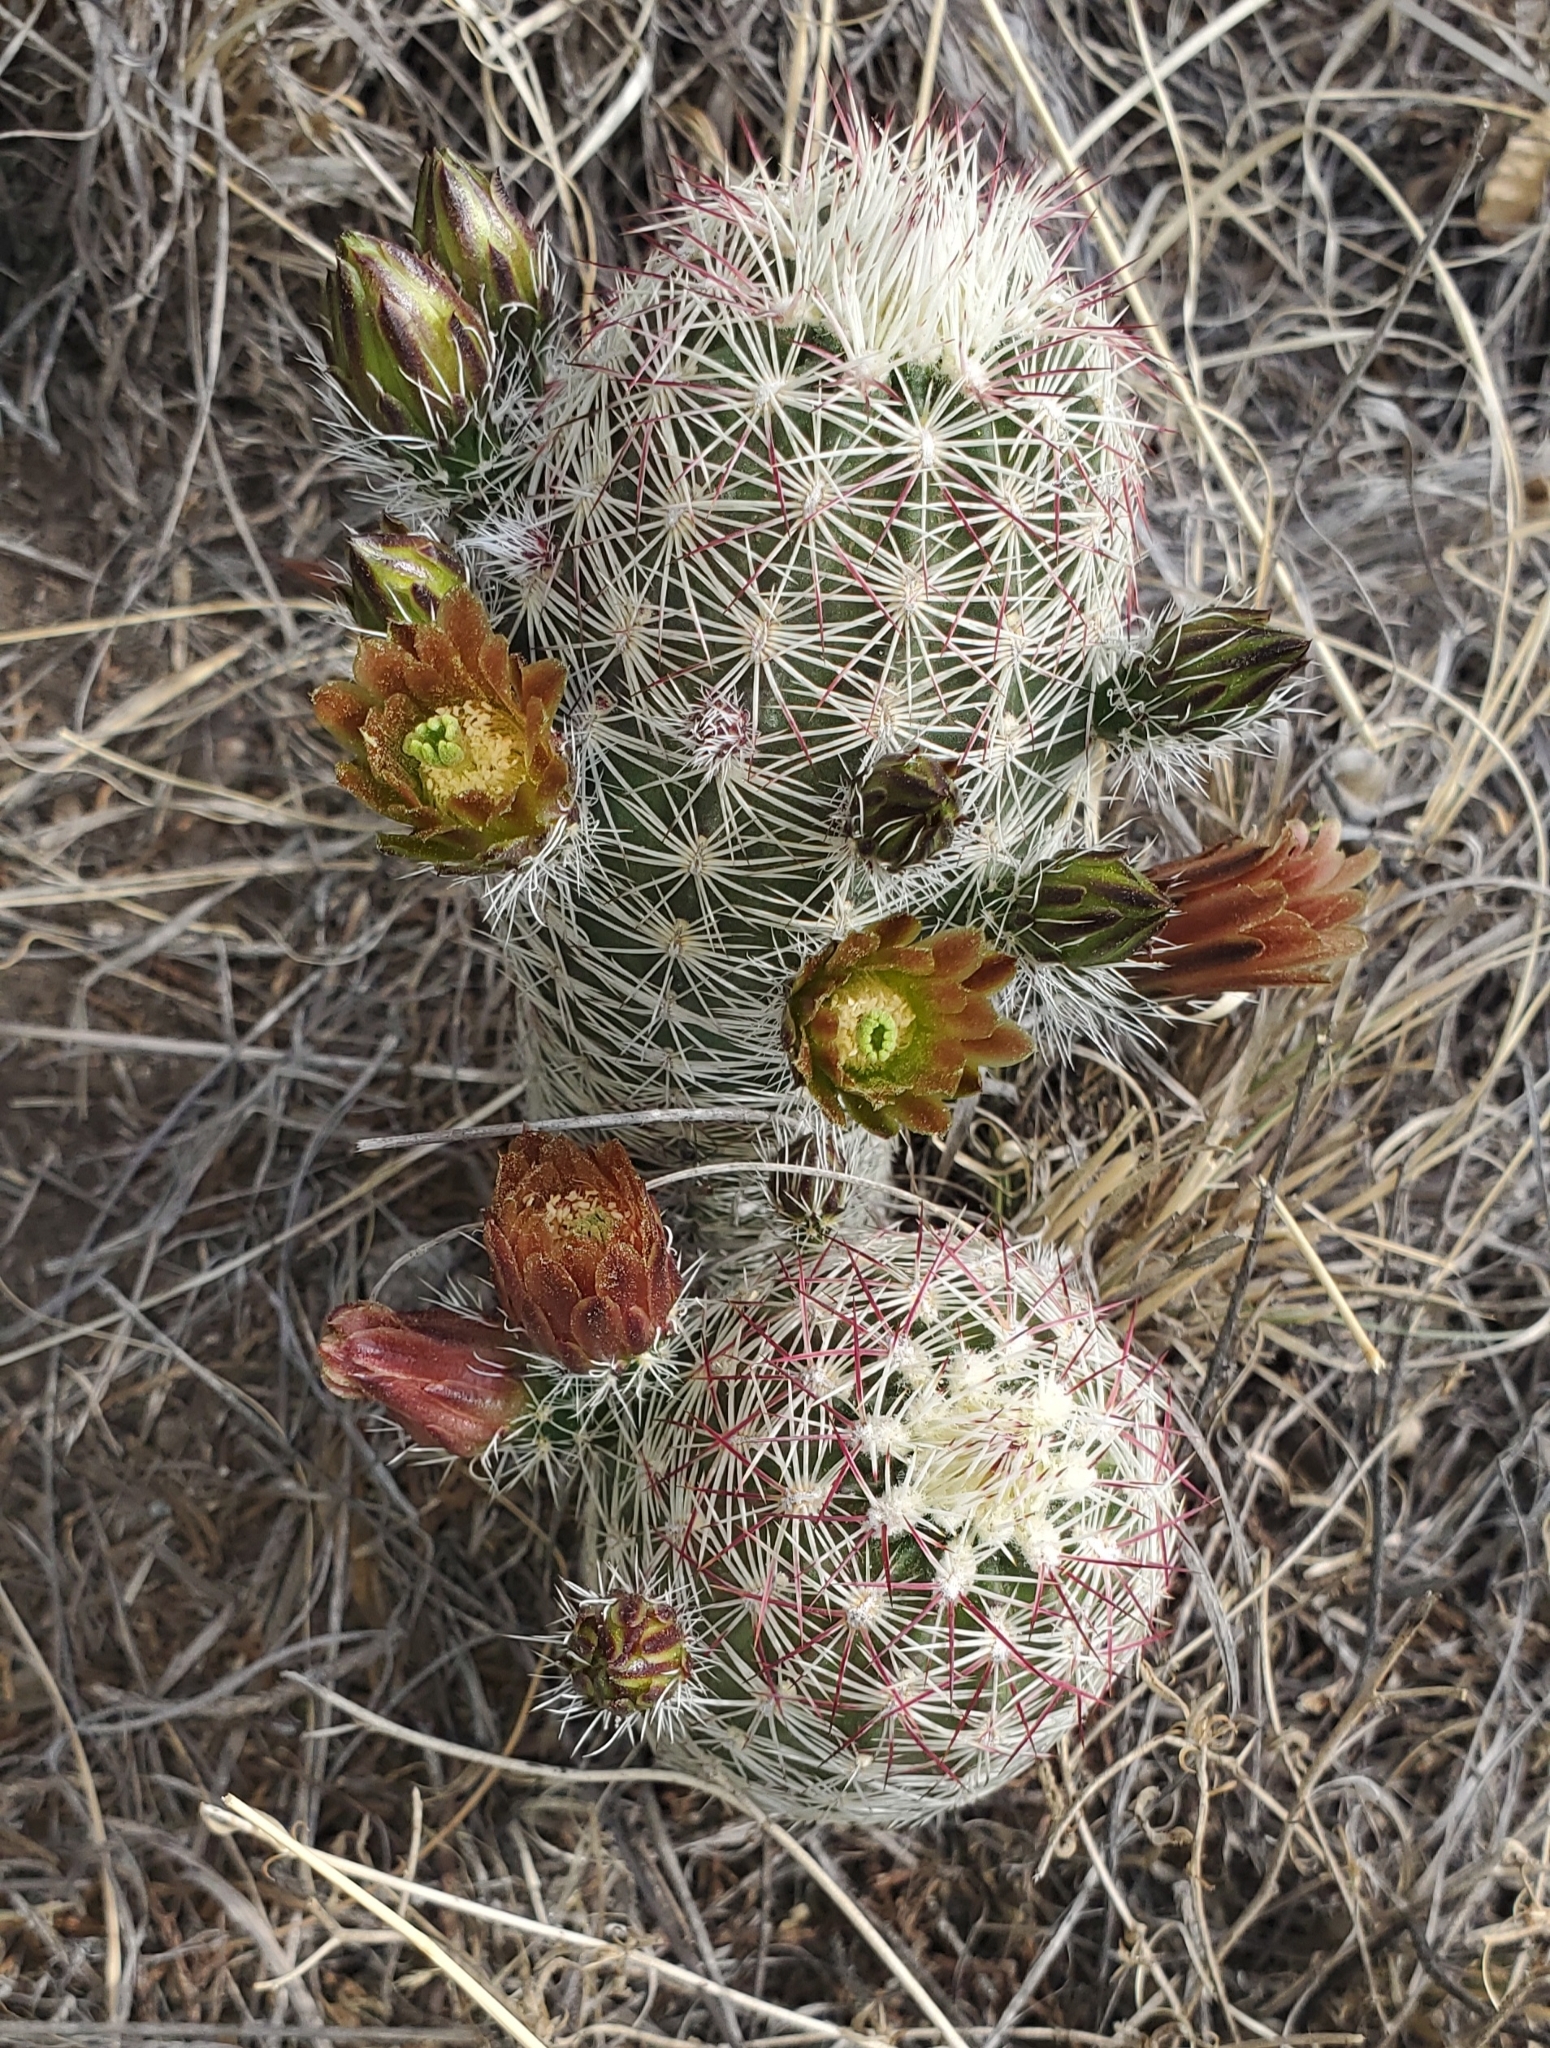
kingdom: Plantae
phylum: Tracheophyta
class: Magnoliopsida
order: Caryophyllales
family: Cactaceae
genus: Echinocereus
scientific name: Echinocereus viridiflorus
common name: Nylon hedgehog cactus
